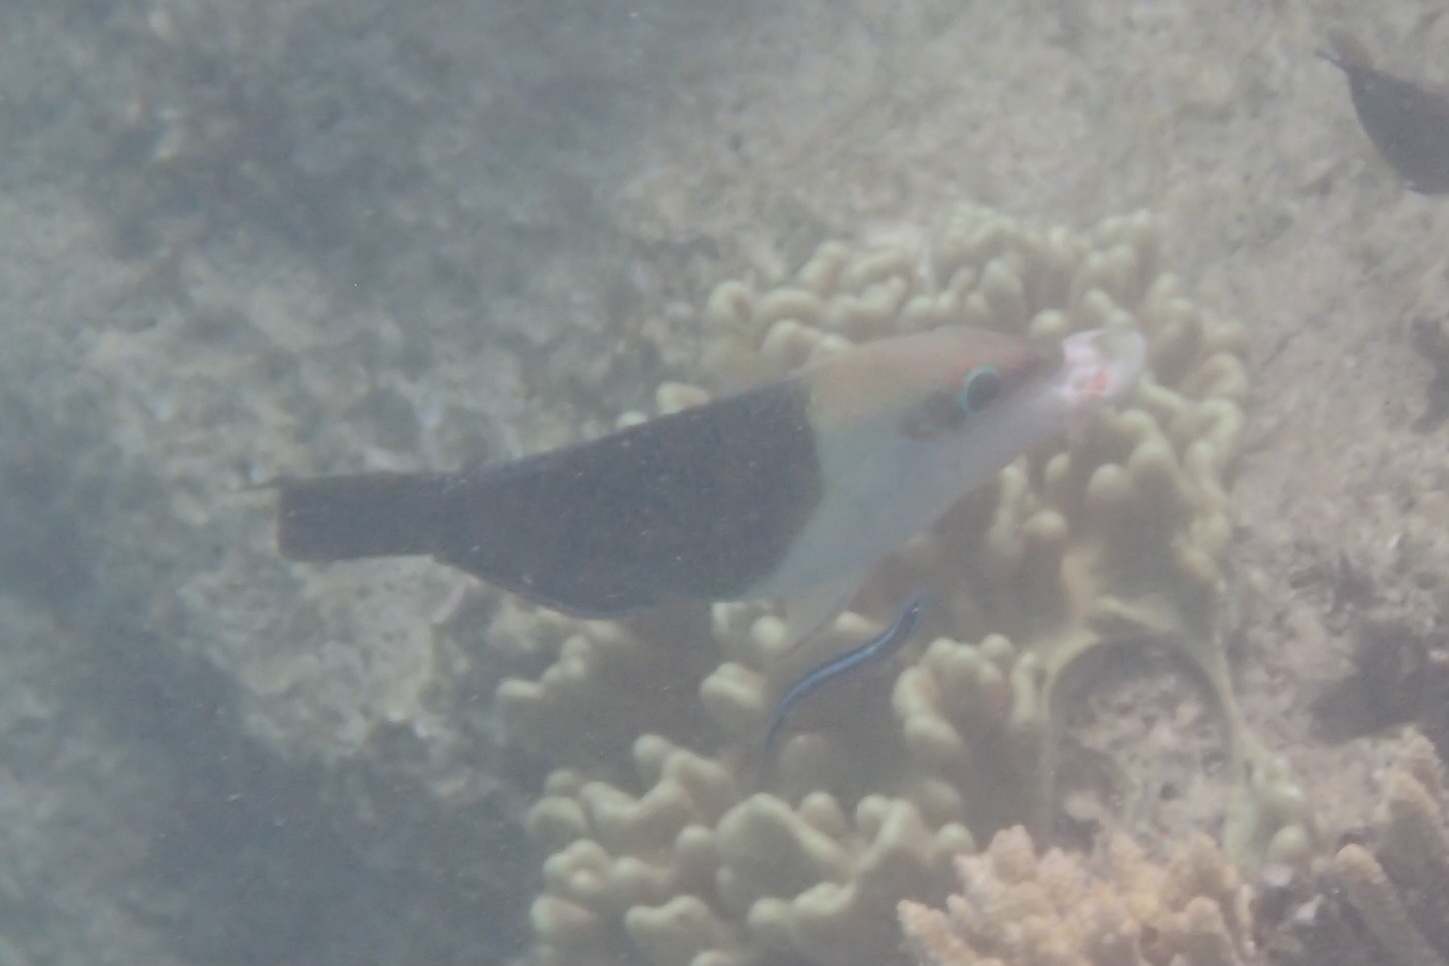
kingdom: Animalia
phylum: Chordata
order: Perciformes
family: Labridae
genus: Hemigymnus
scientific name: Hemigymnus melapterus
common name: Blackeye thicklip
